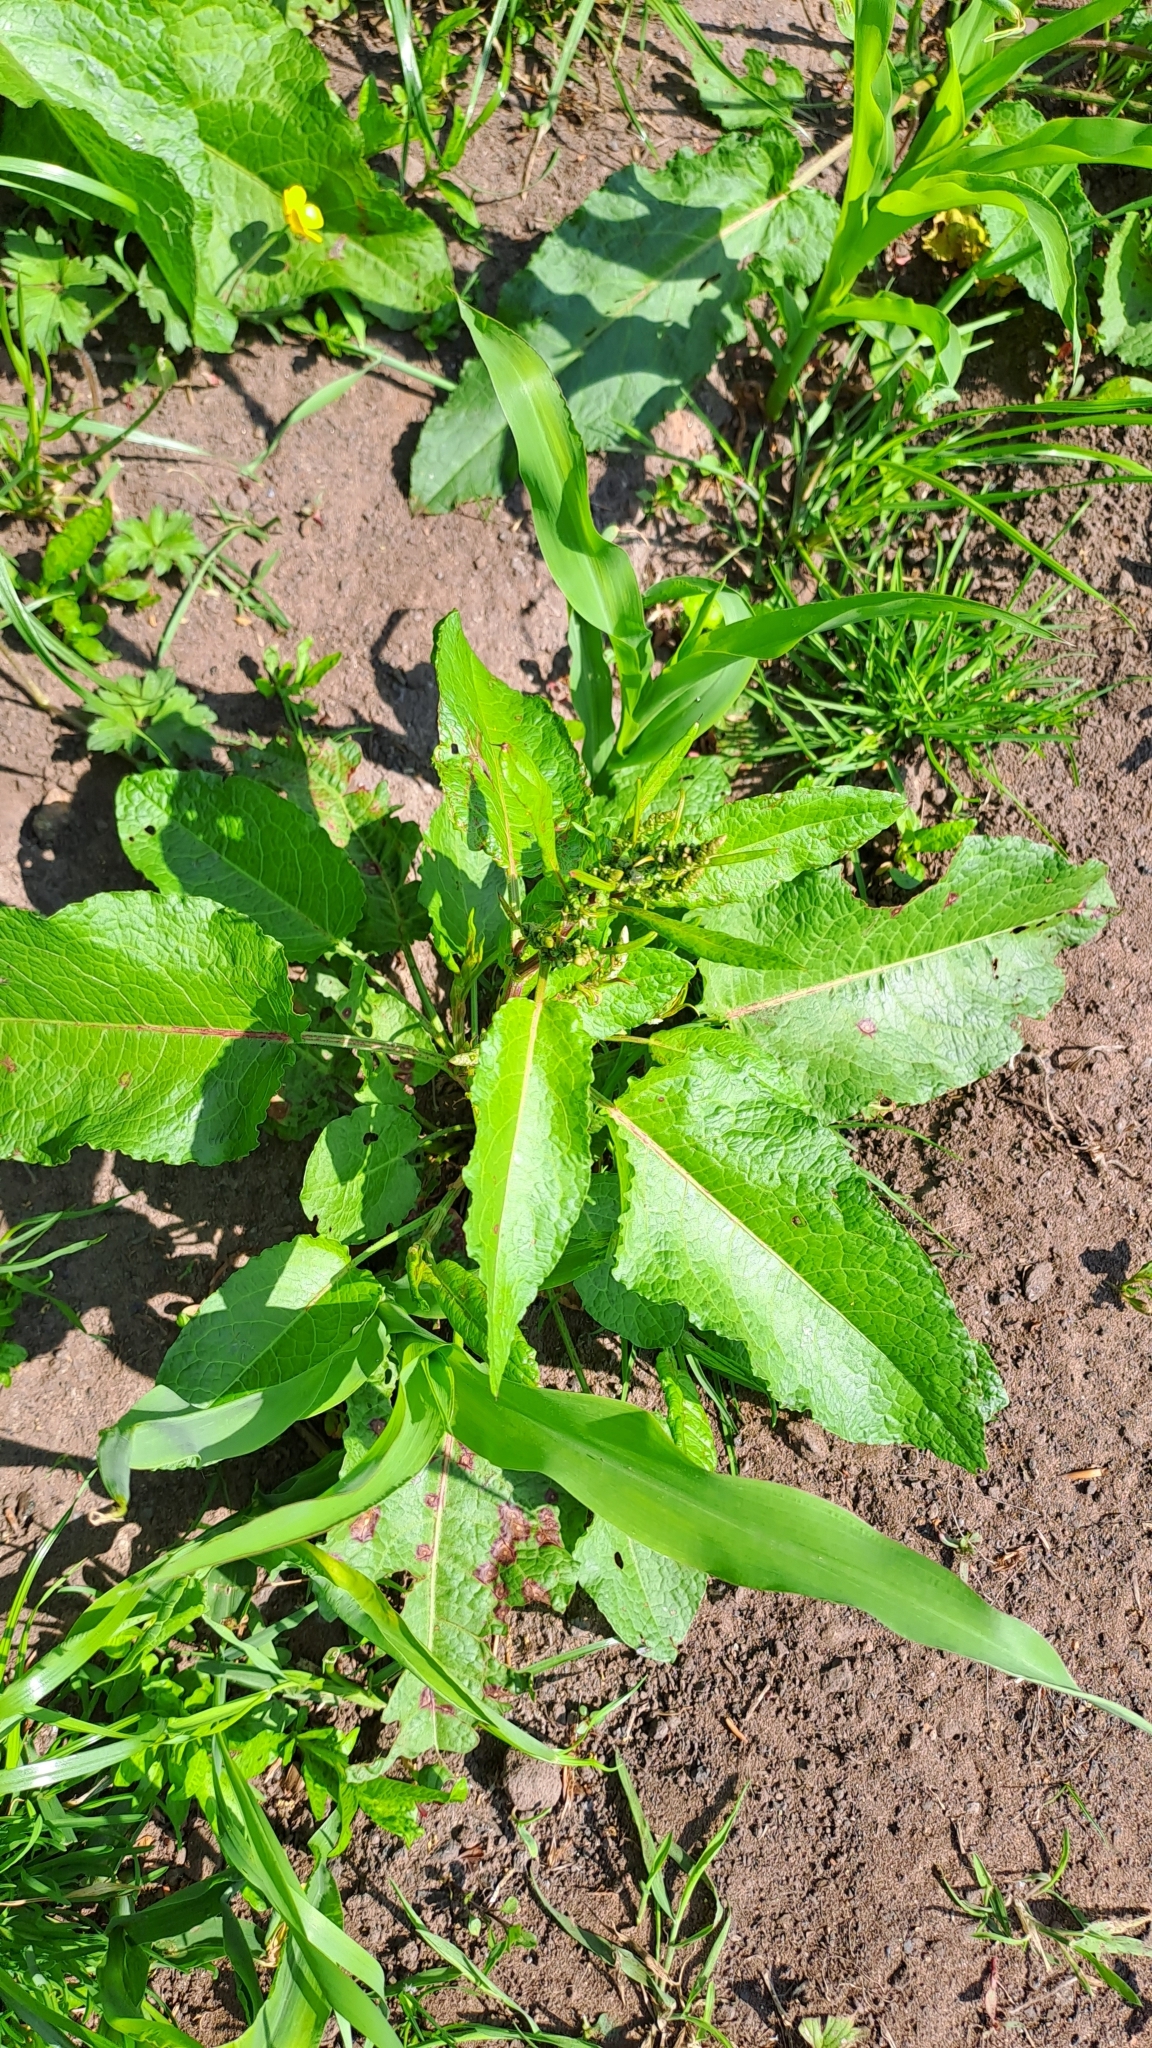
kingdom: Plantae
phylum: Tracheophyta
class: Magnoliopsida
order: Caryophyllales
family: Polygonaceae
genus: Rumex
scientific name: Rumex obtusifolius
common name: Bitter dock
